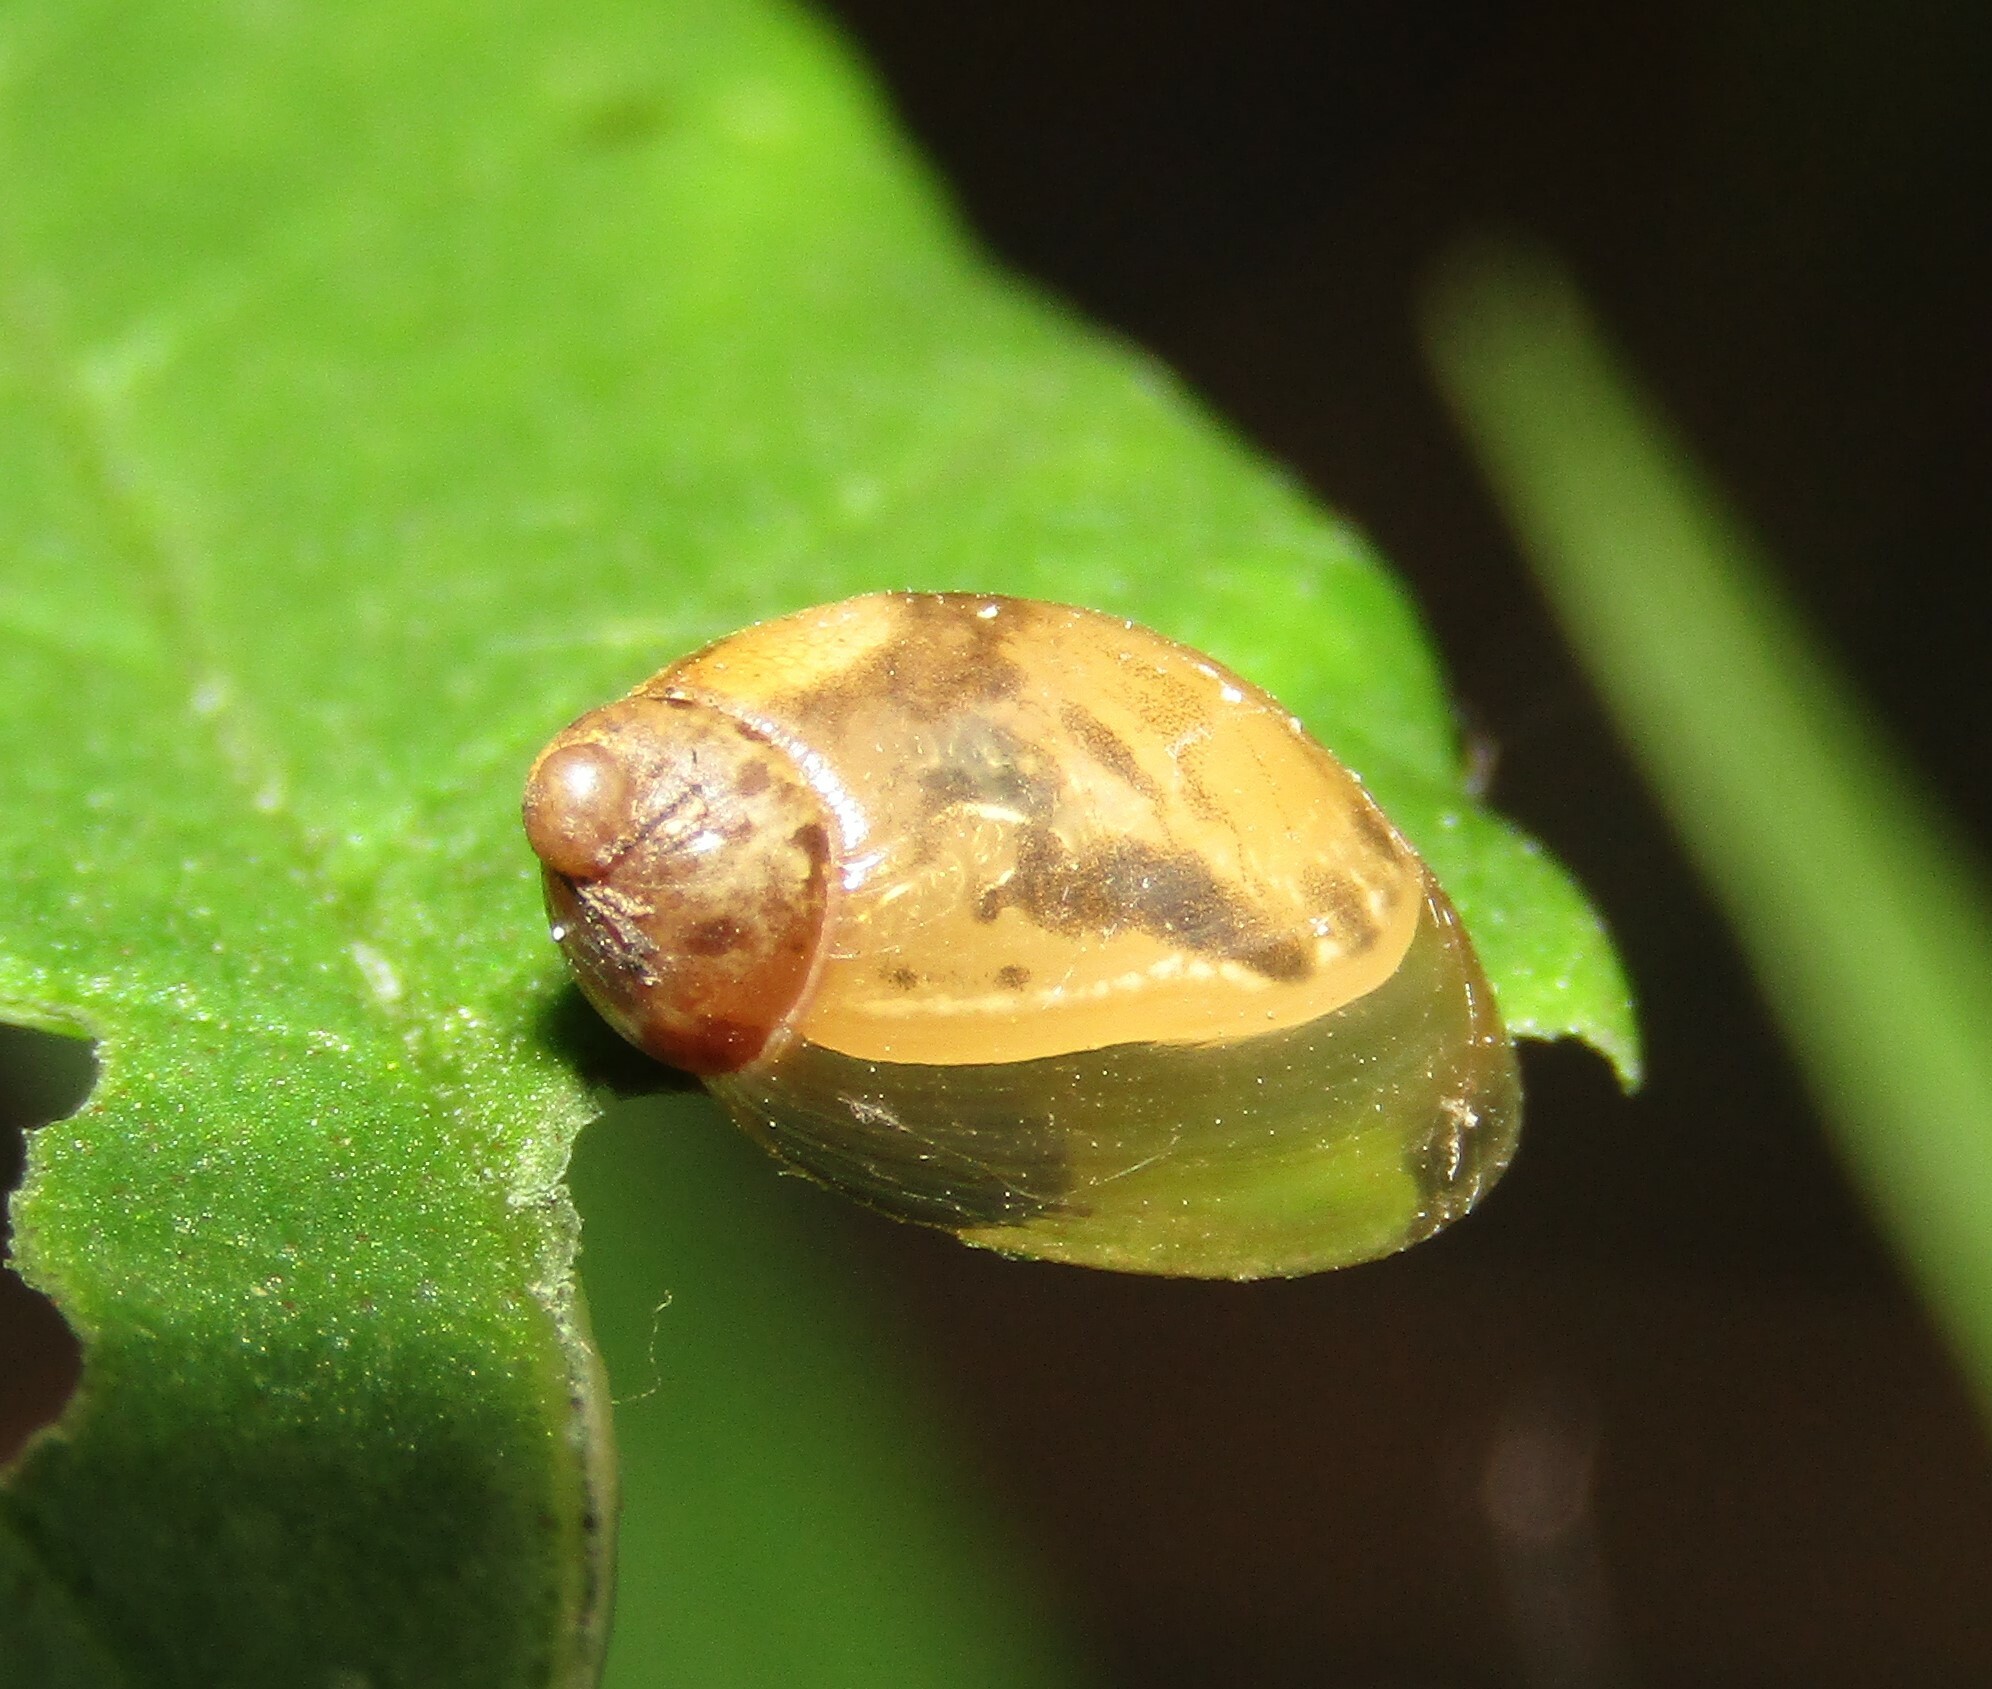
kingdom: Animalia
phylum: Mollusca
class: Gastropoda
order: Stylommatophora
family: Succineidae
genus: Succinea
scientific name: Succinea putris
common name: European ambersnail
